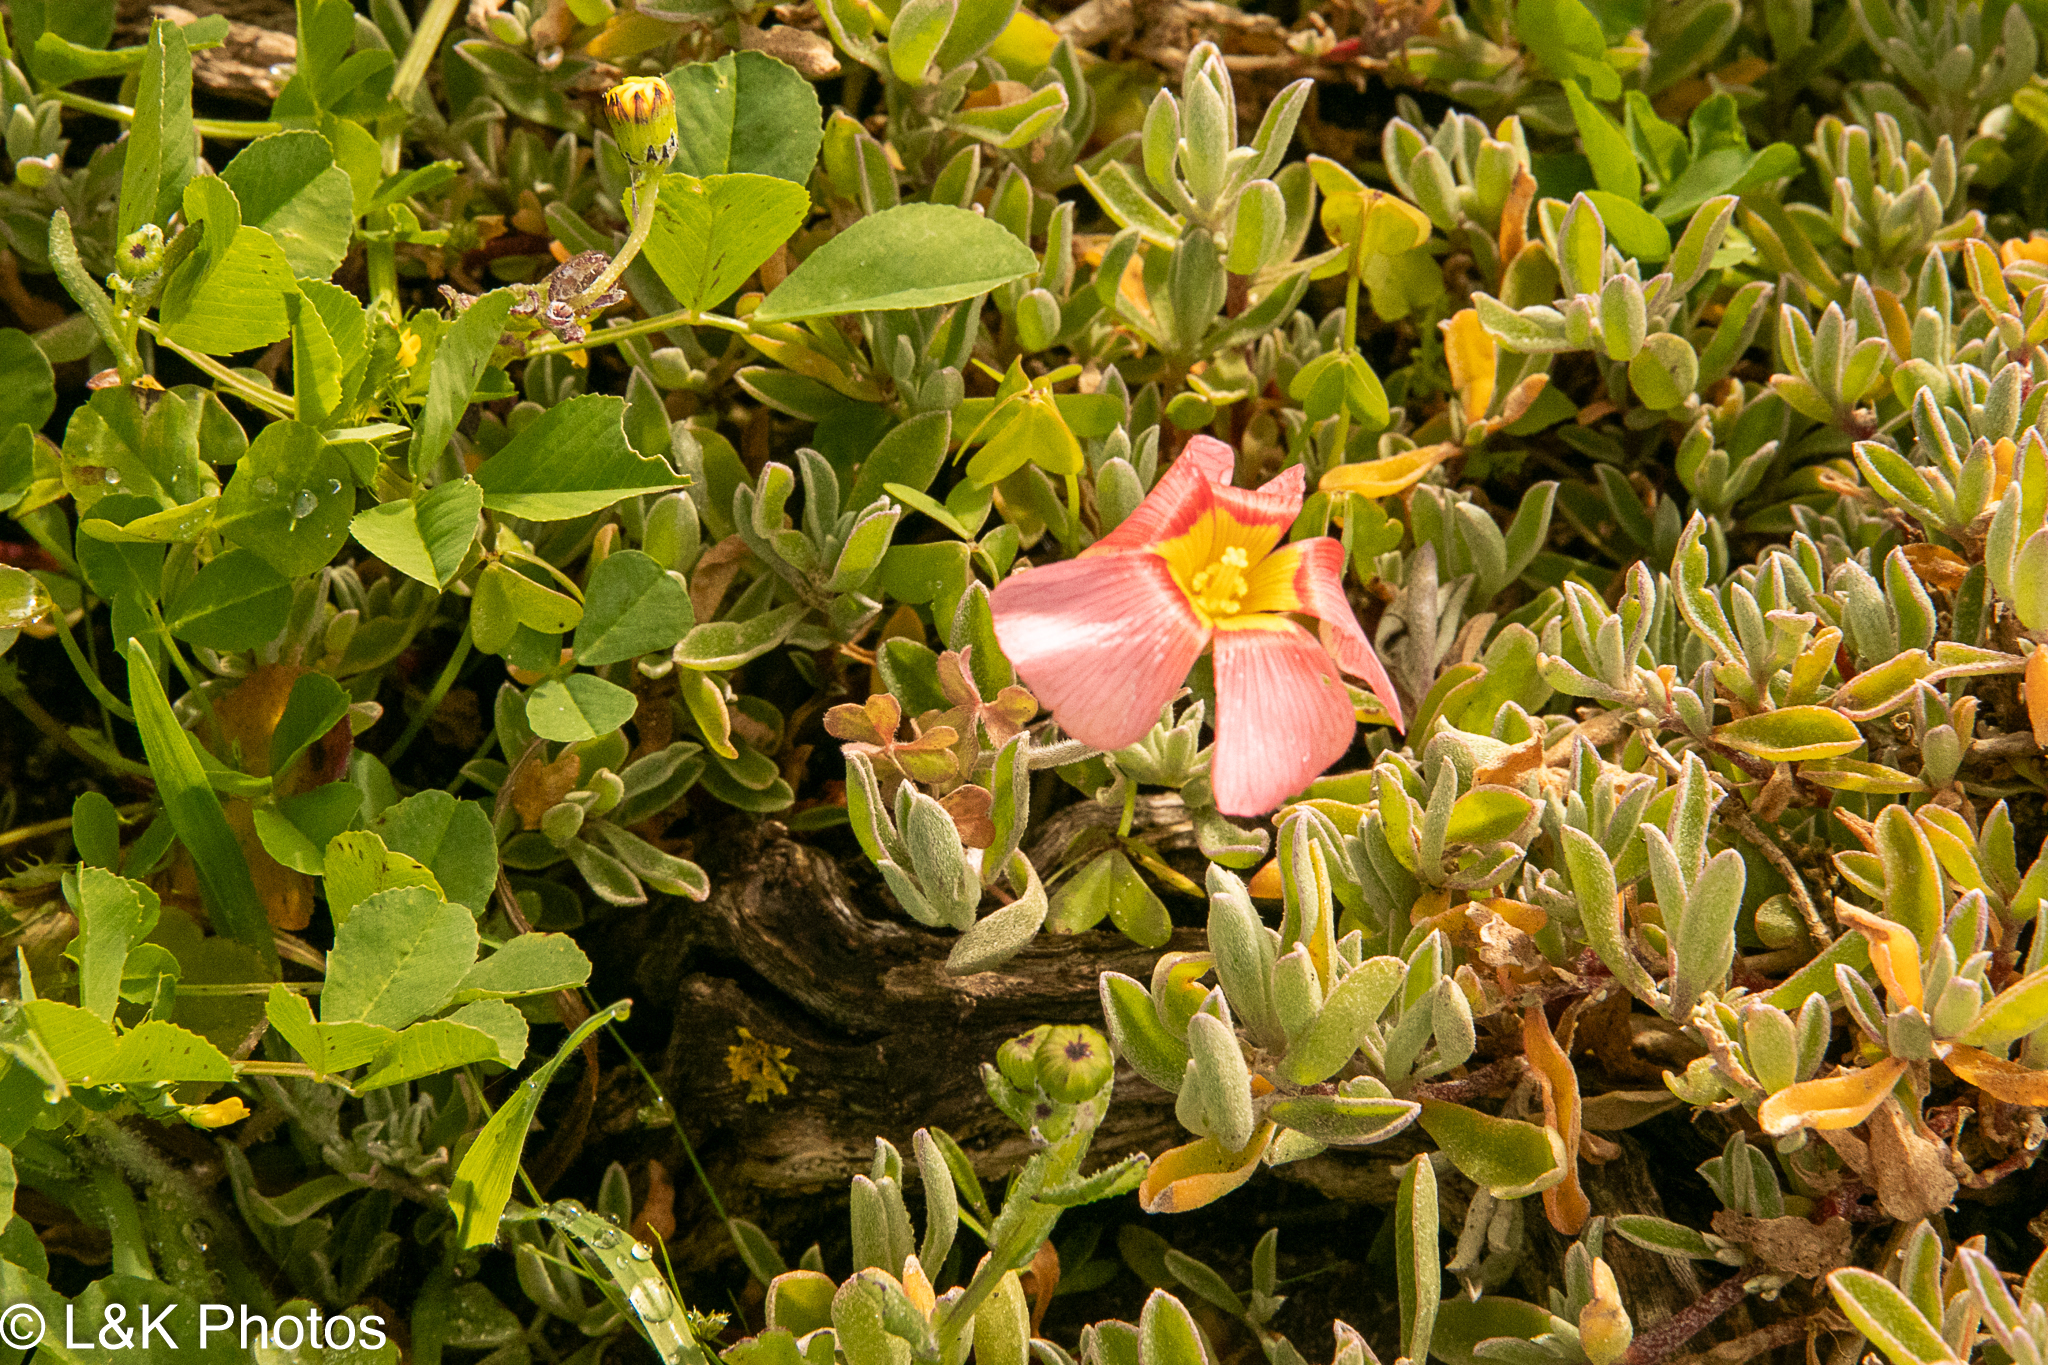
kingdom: Plantae
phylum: Tracheophyta
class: Magnoliopsida
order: Oxalidales
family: Oxalidaceae
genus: Oxalis
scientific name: Oxalis obtusa
